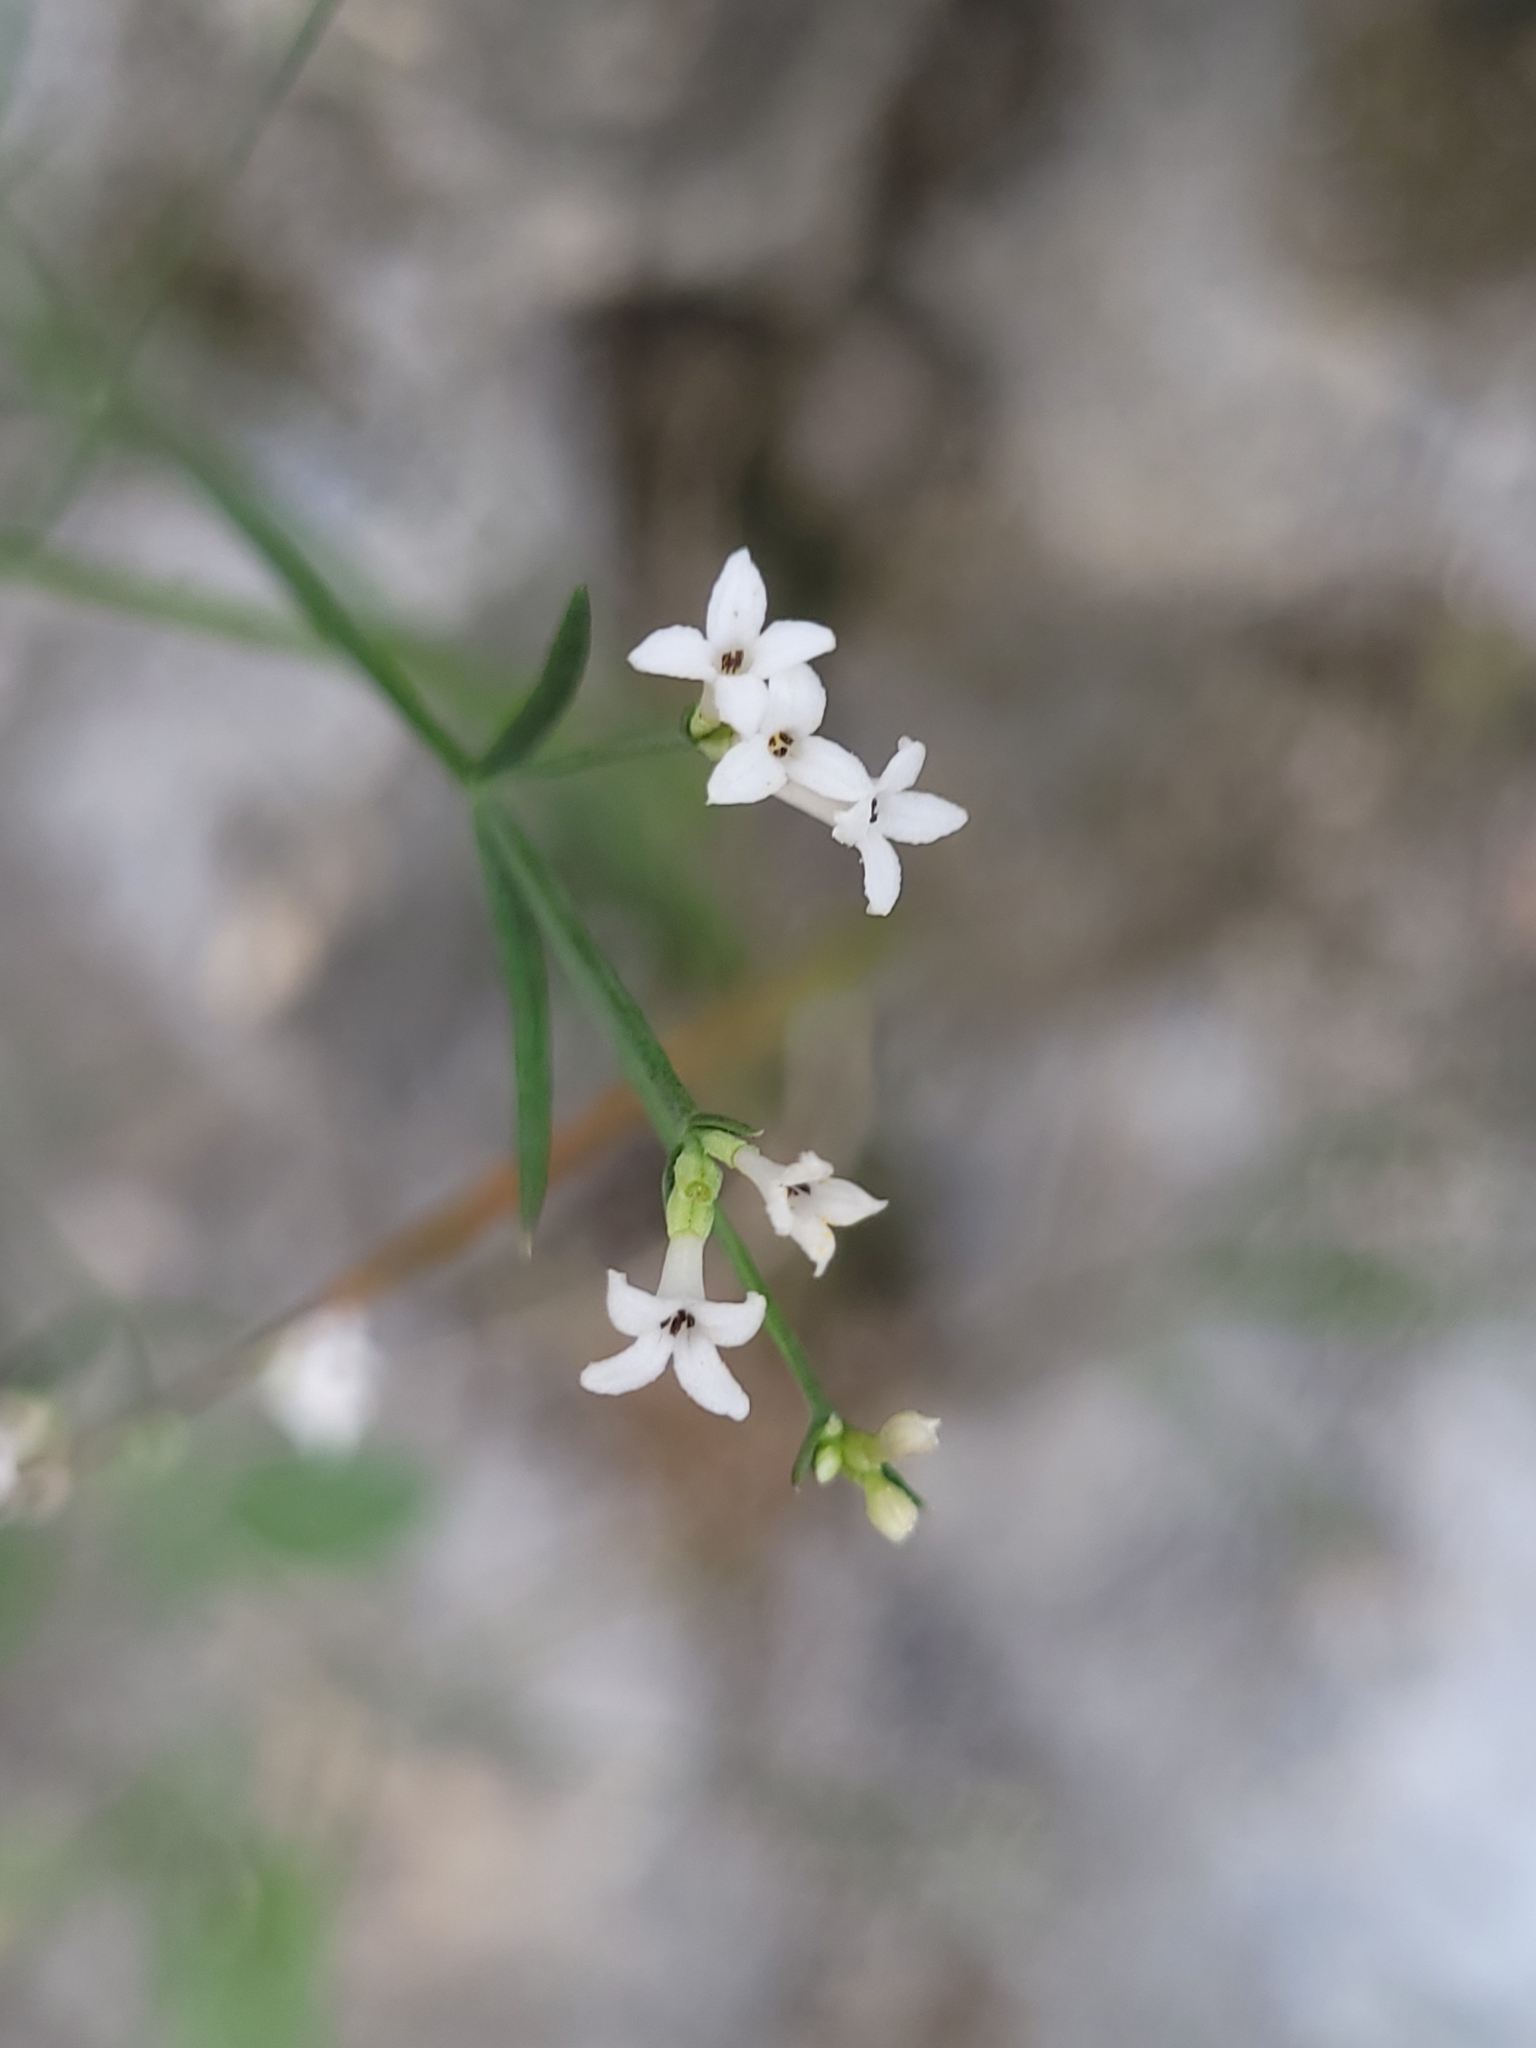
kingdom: Plantae
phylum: Tracheophyta
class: Magnoliopsida
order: Gentianales
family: Rubiaceae
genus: Cynanchica
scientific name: Cynanchica pyrenaica
